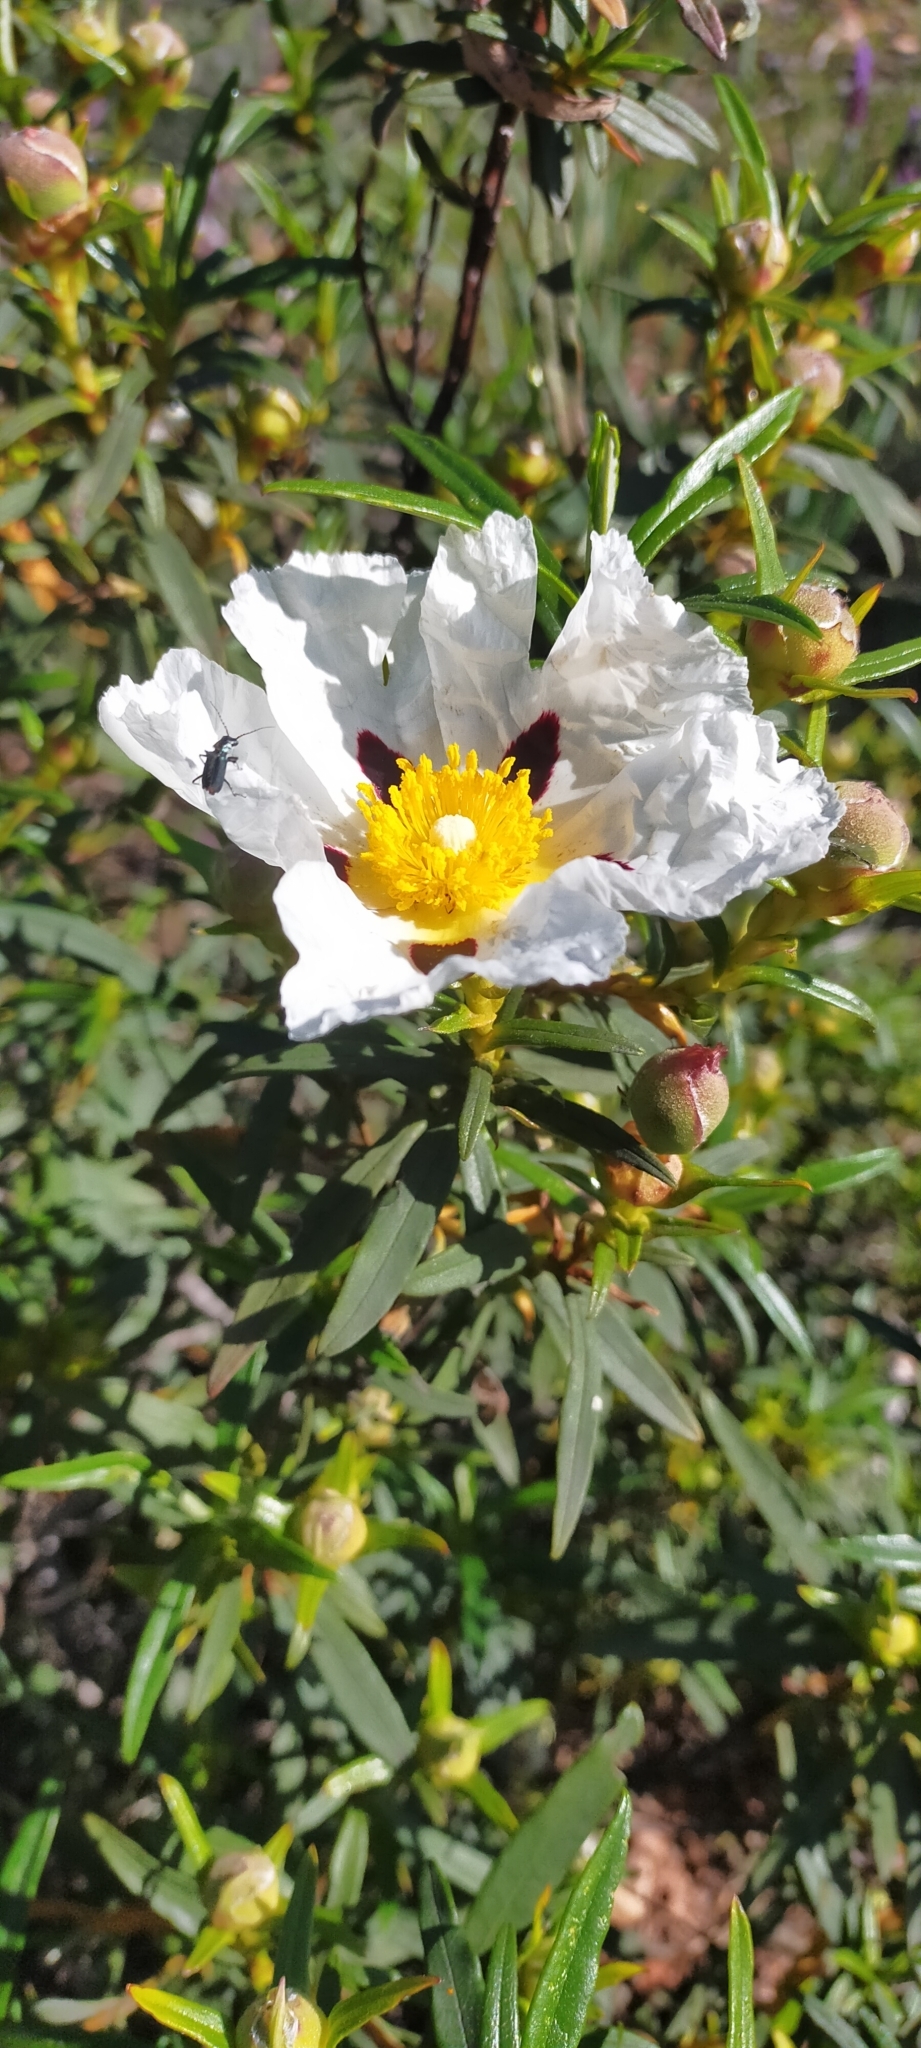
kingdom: Plantae
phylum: Tracheophyta
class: Magnoliopsida
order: Malvales
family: Cistaceae
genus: Cistus
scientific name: Cistus ladanifer
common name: Common gum cistus
